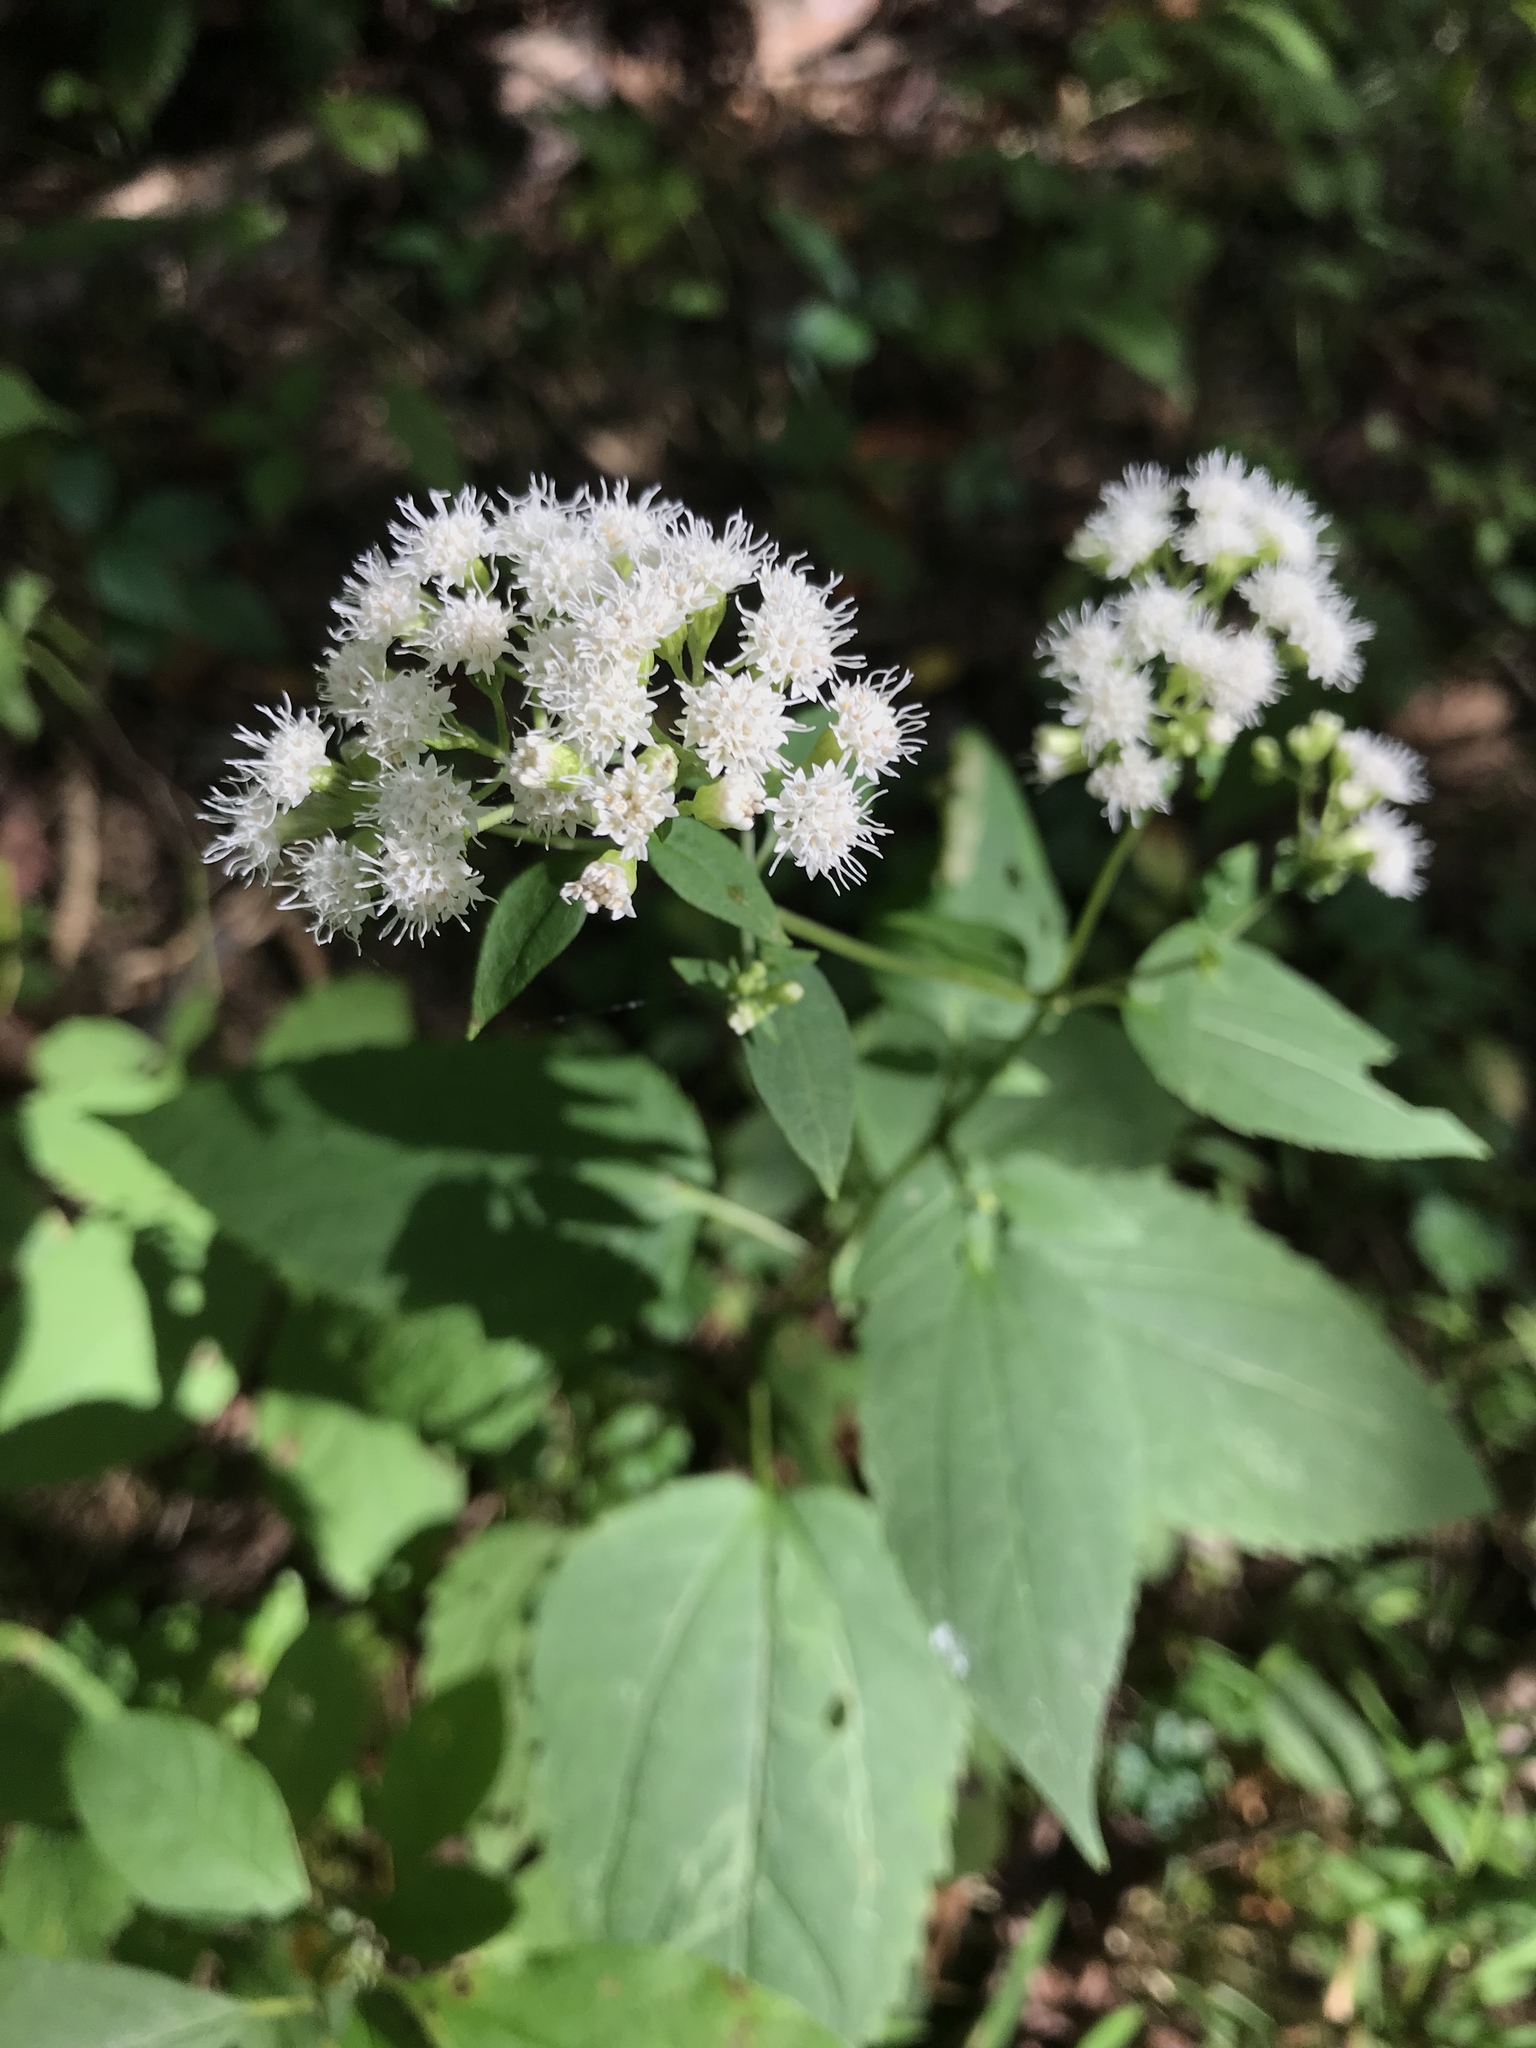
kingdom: Plantae
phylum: Tracheophyta
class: Magnoliopsida
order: Asterales
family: Asteraceae
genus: Ageratina
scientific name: Ageratina altissima
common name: White snakeroot
